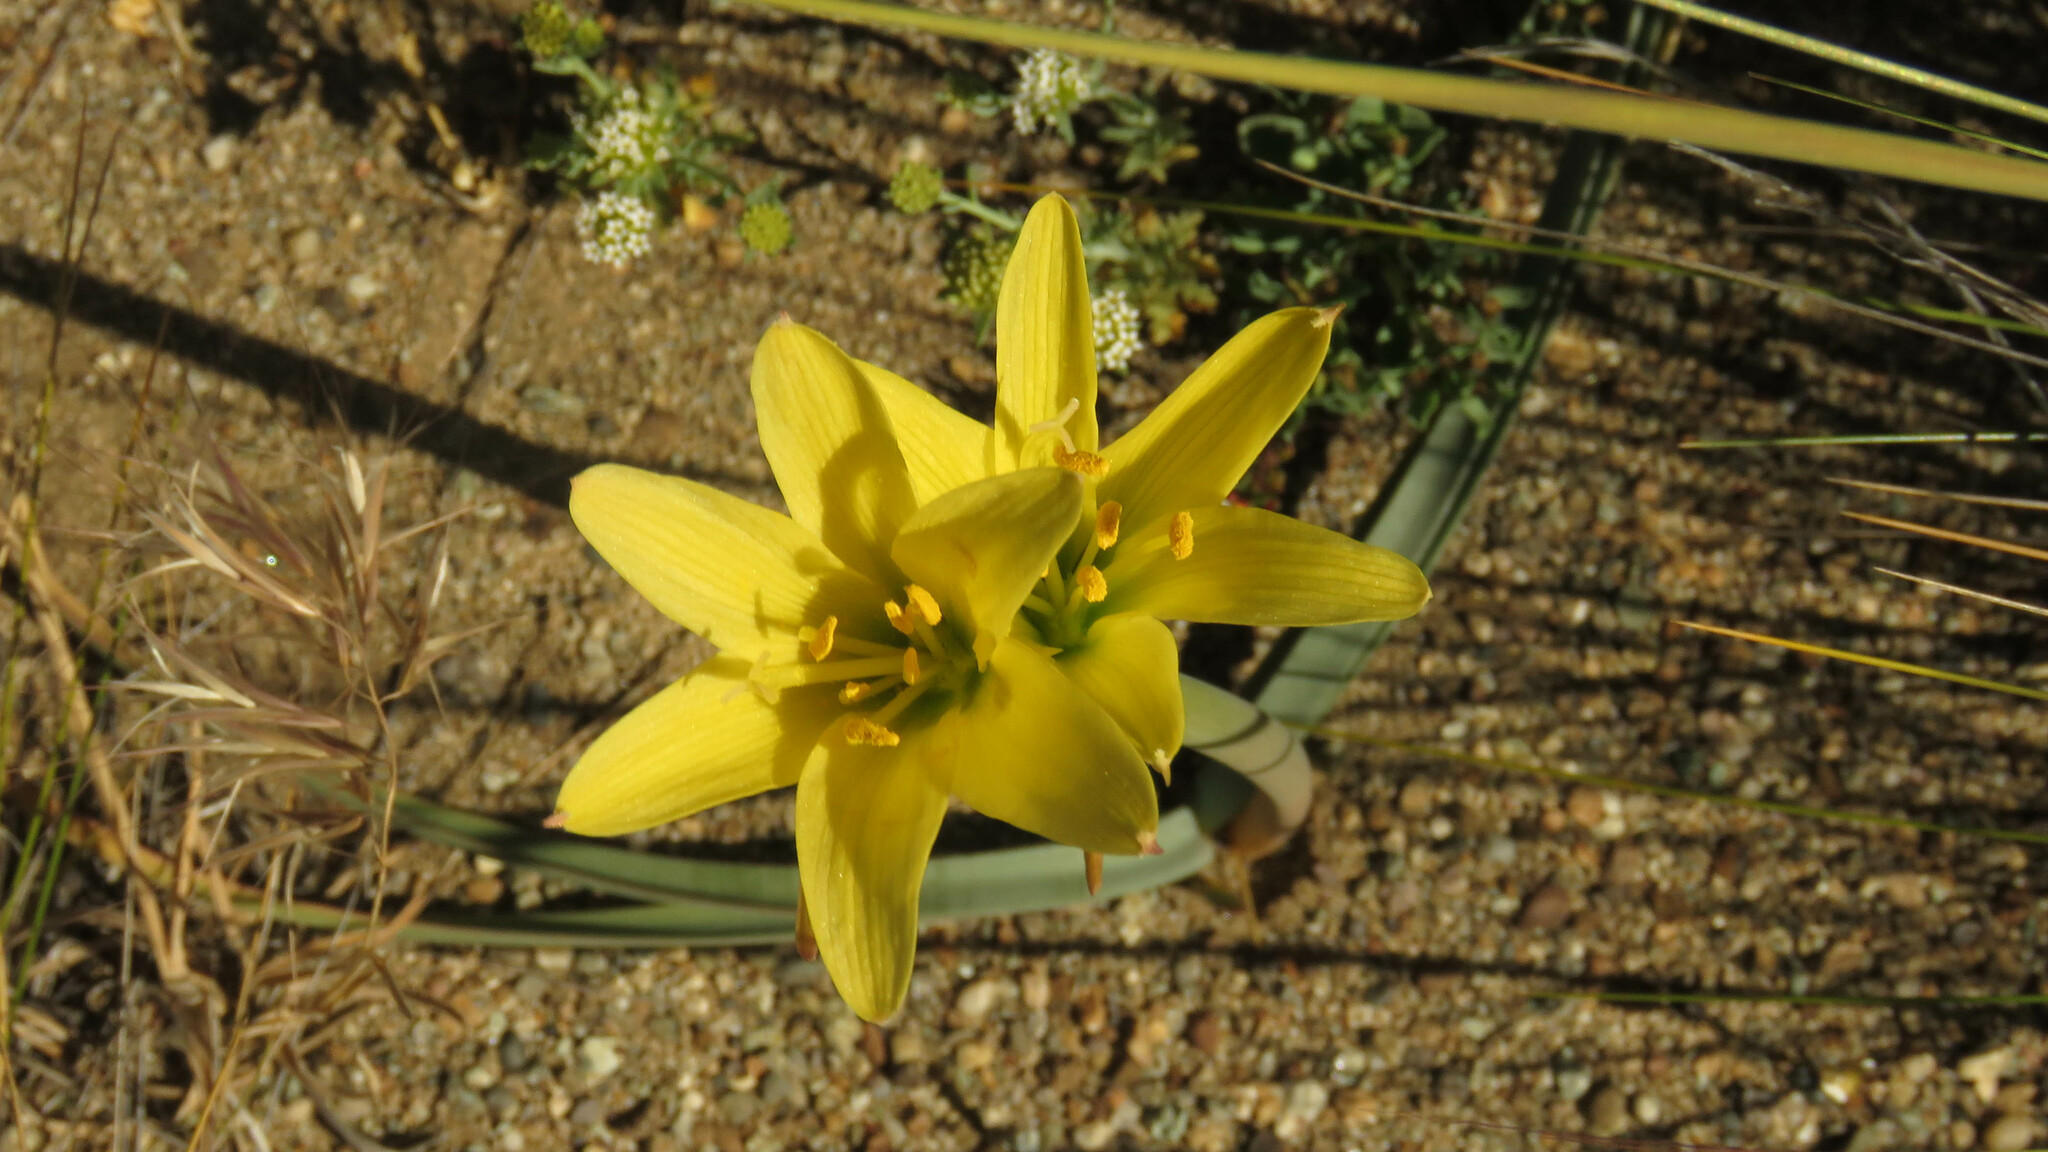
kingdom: Plantae
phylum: Tracheophyta
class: Liliopsida
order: Asparagales
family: Amaryllidaceae
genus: Zephyranthes
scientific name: Zephyranthes gilliesiana
